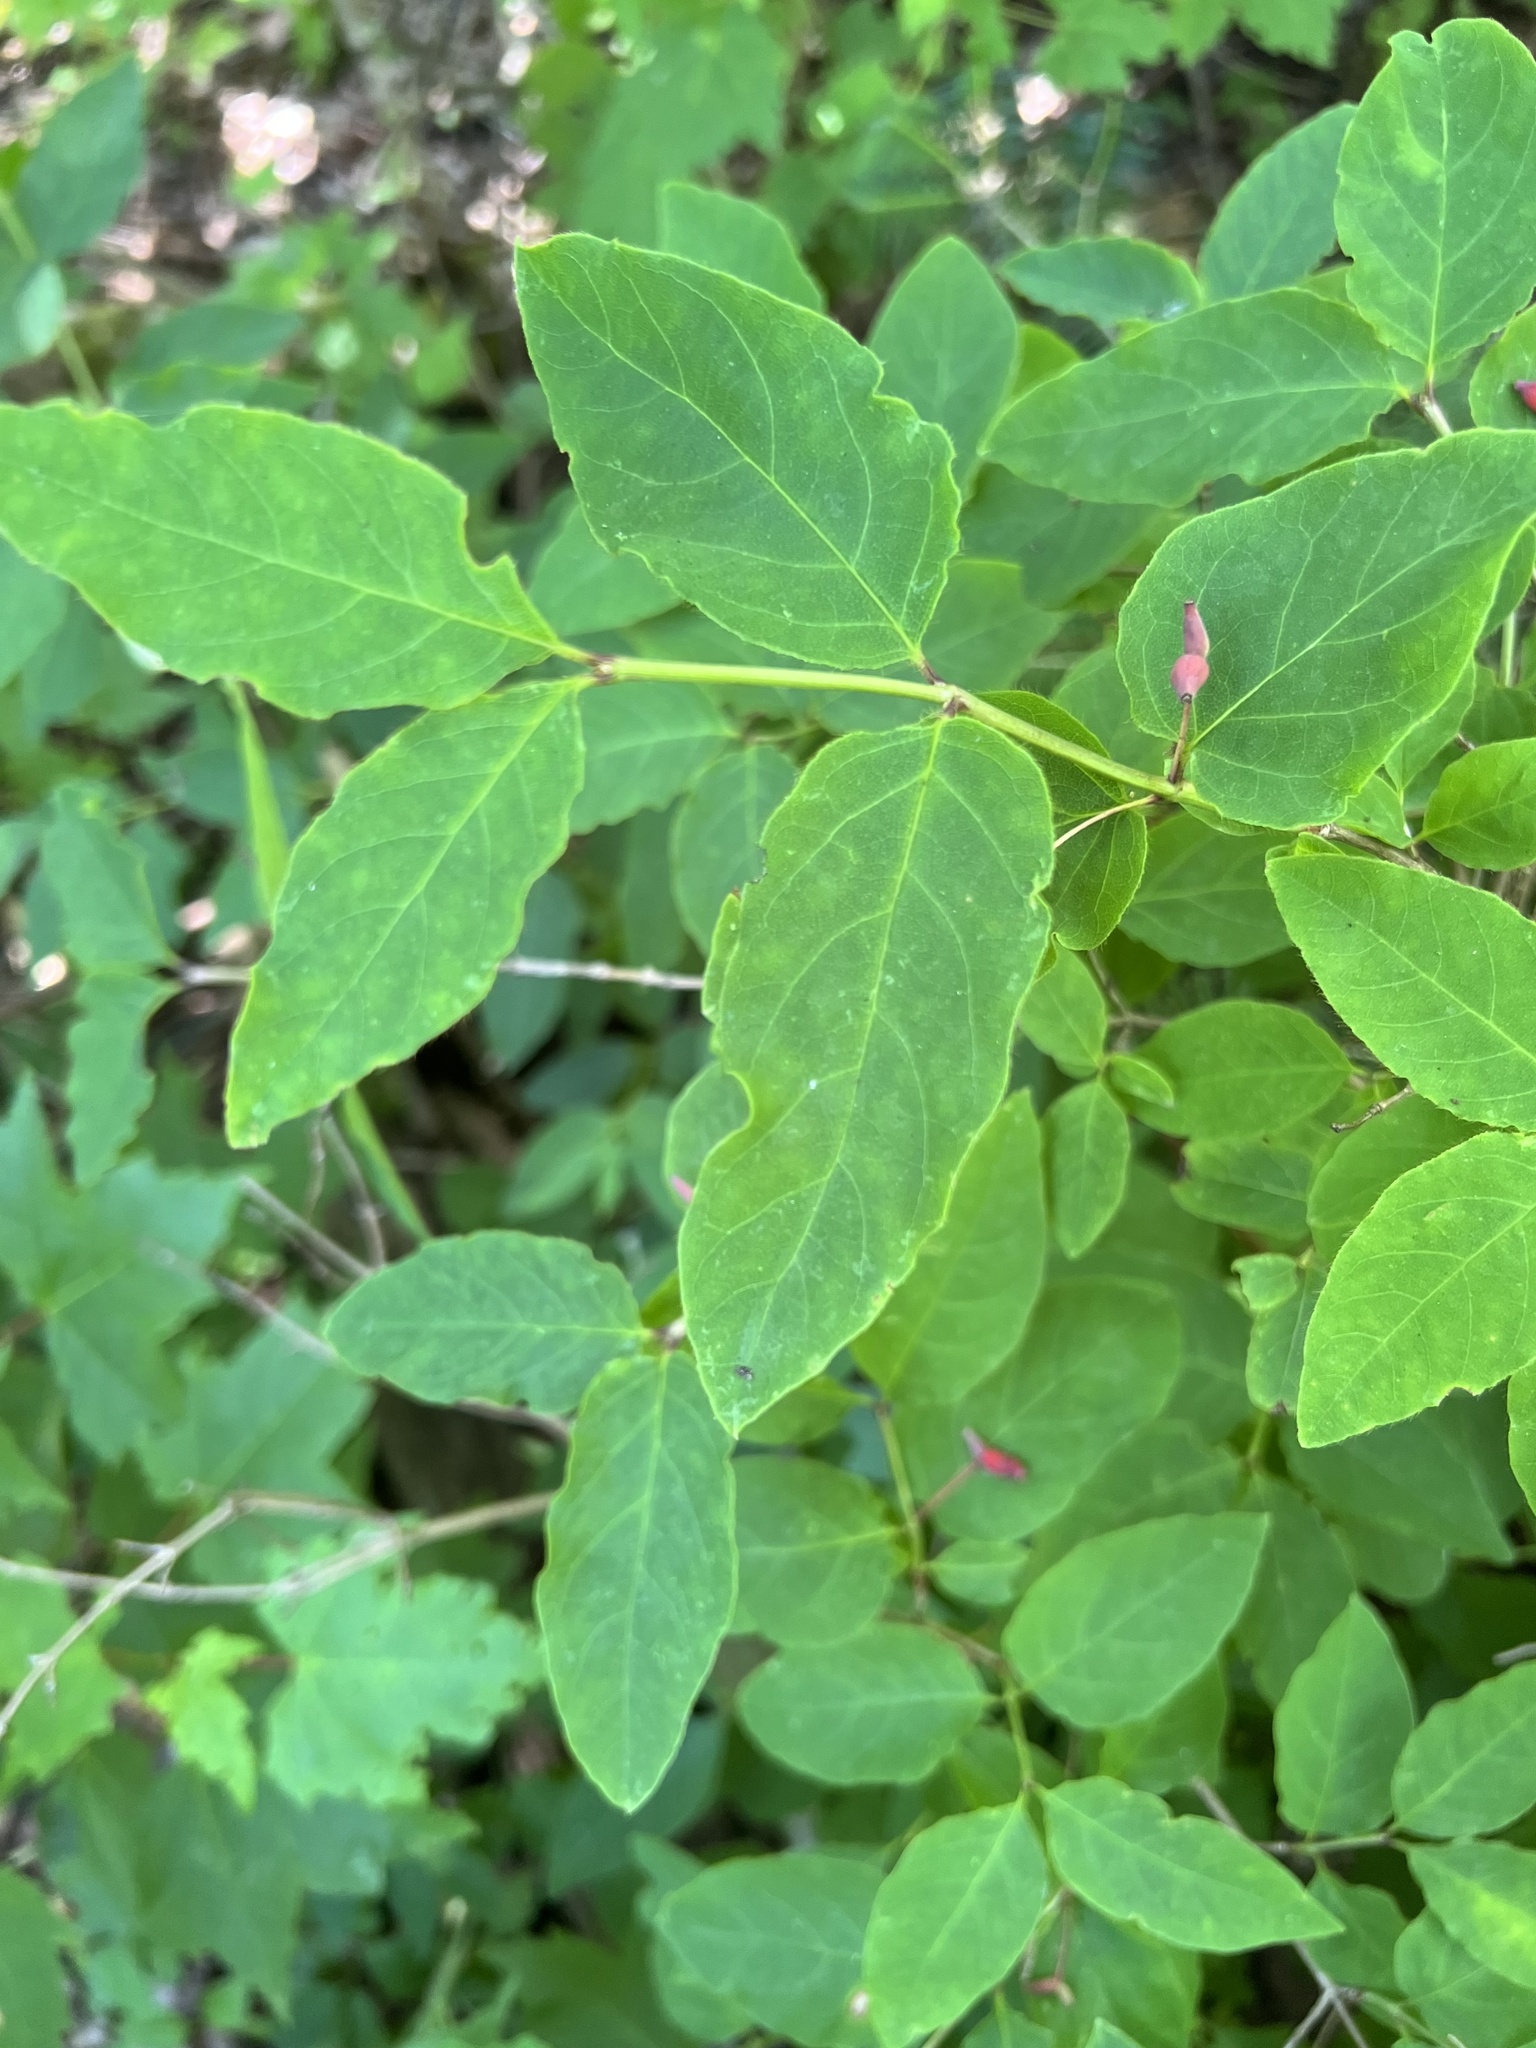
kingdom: Plantae
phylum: Tracheophyta
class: Magnoliopsida
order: Dipsacales
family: Caprifoliaceae
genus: Lonicera
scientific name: Lonicera canadensis
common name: American fly-honeysuckle
